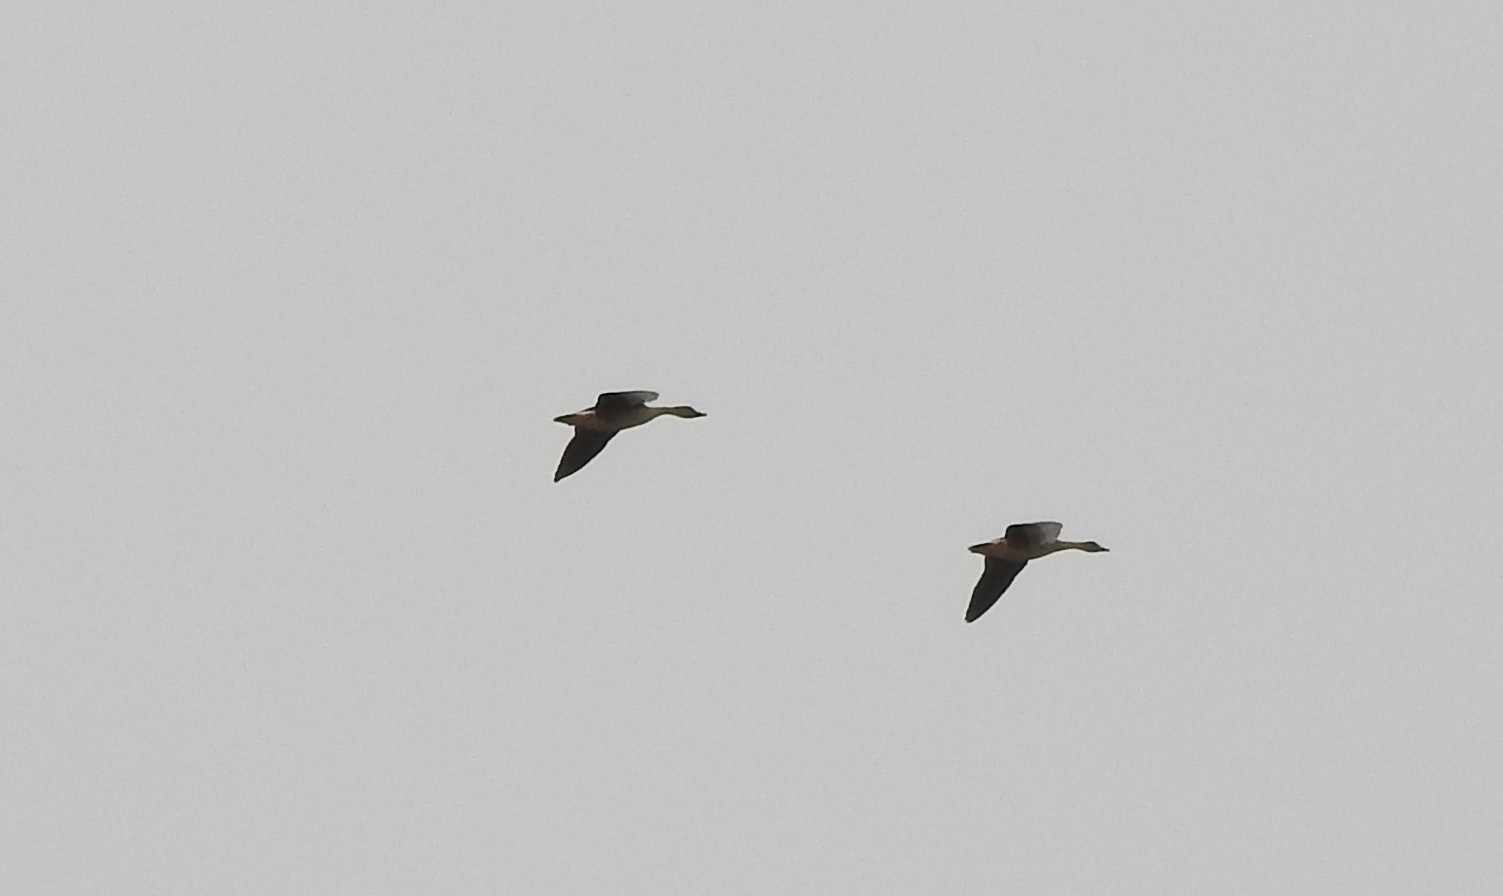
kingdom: Animalia
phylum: Chordata
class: Aves
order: Anseriformes
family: Anatidae
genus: Anser
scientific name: Anser fabalis
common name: Bean goose
